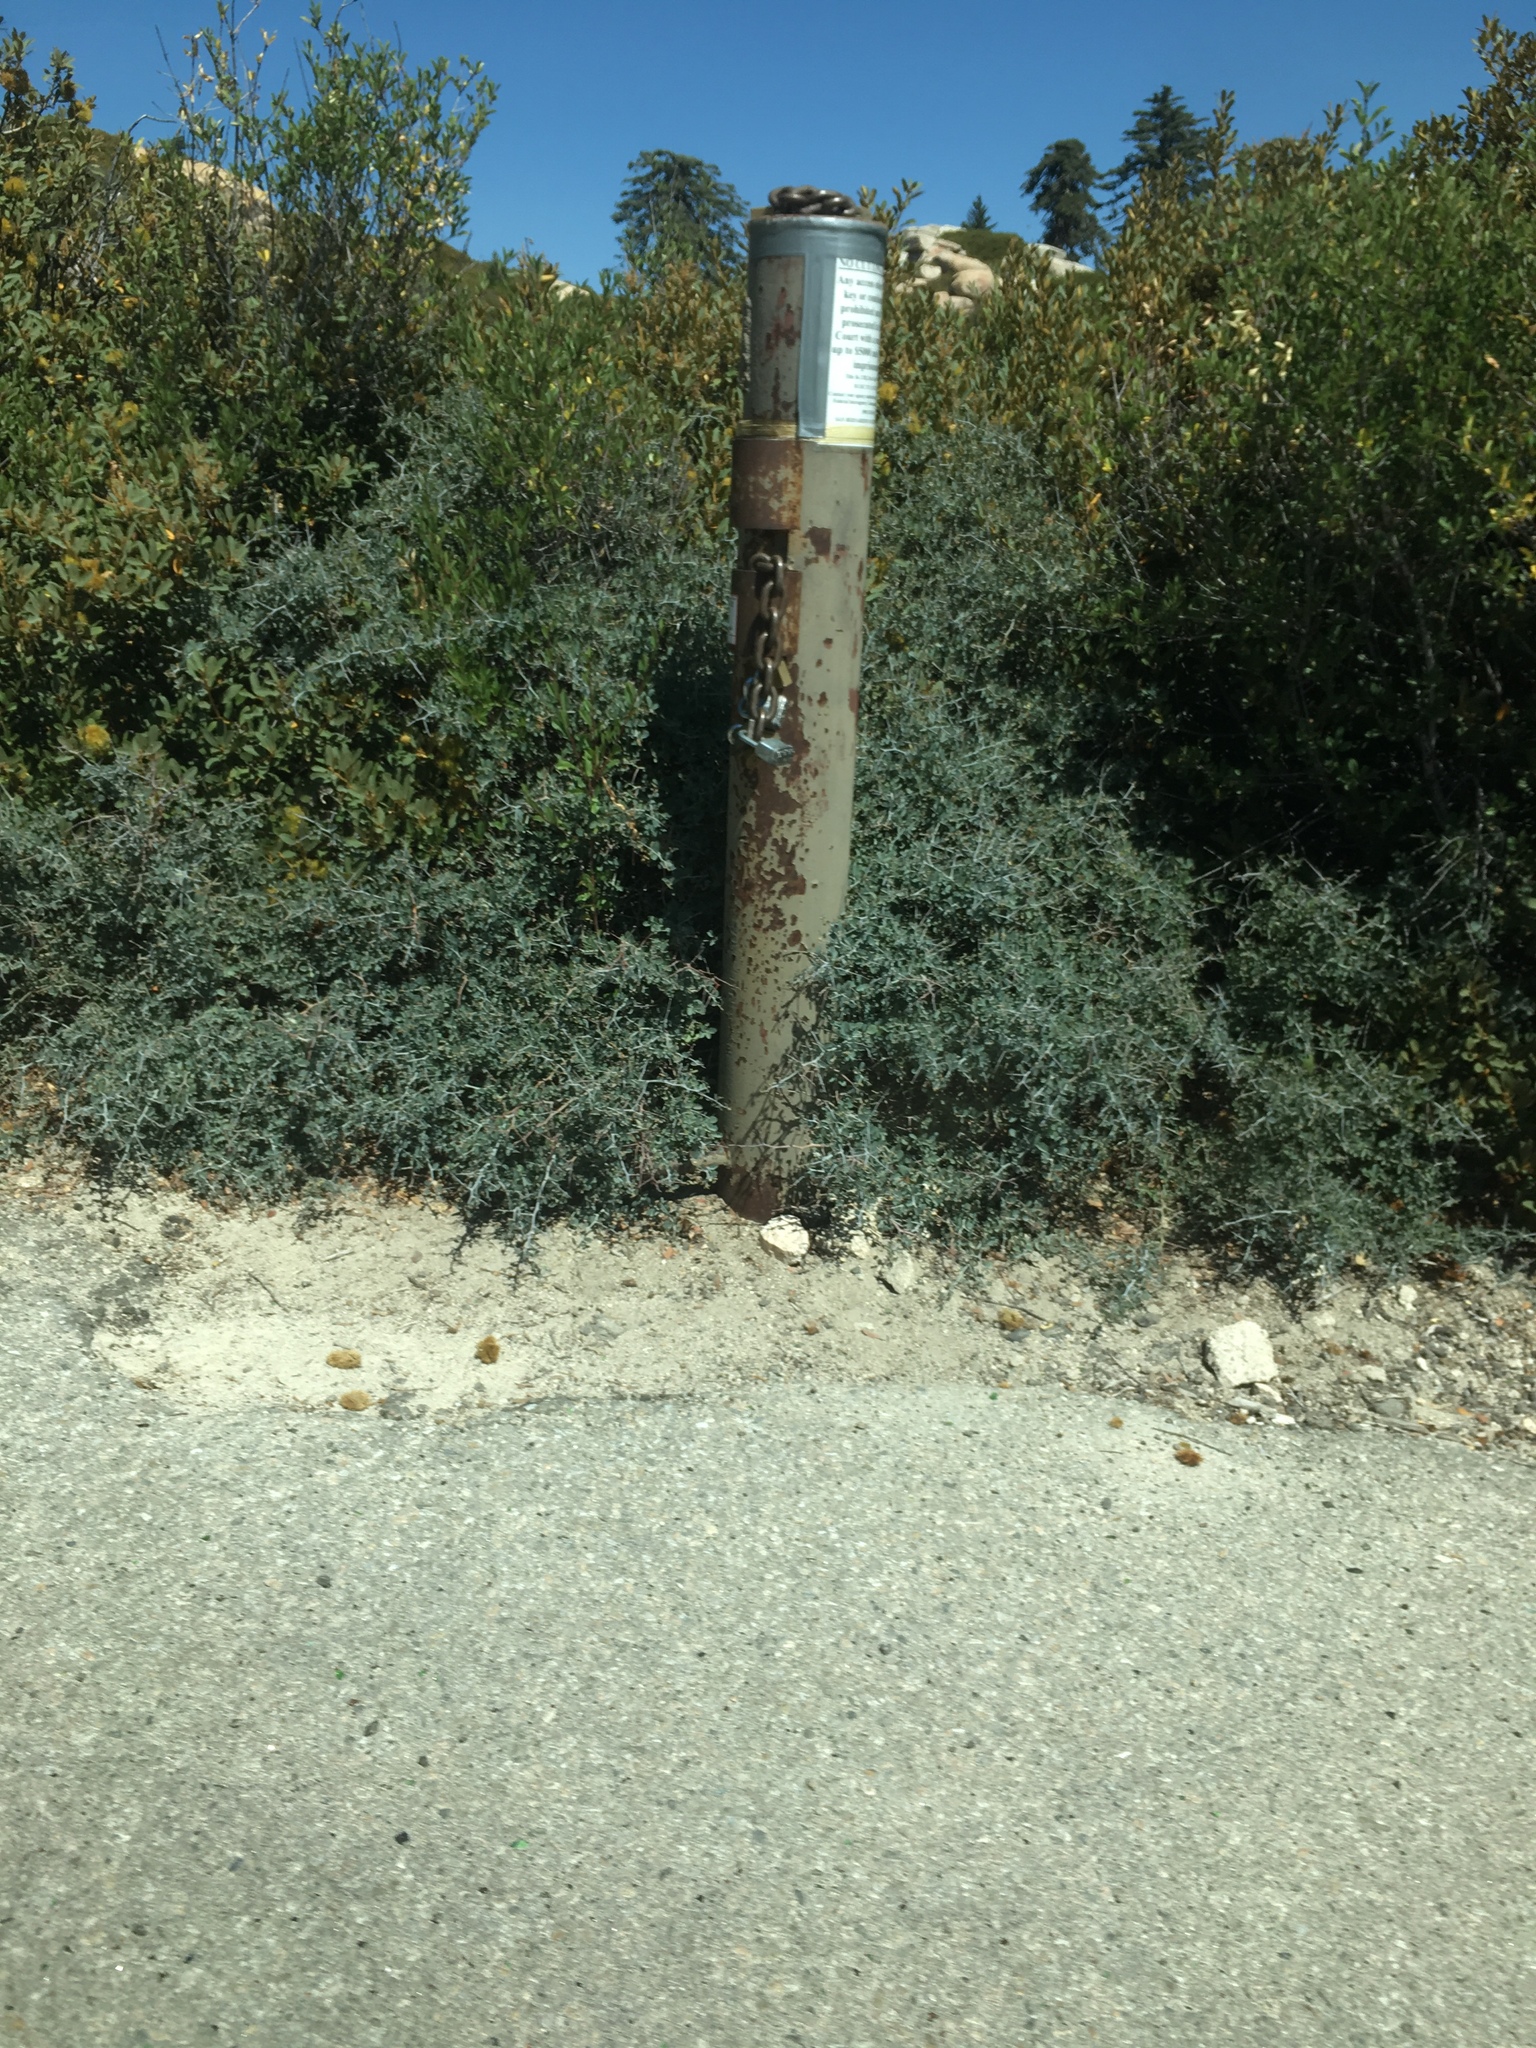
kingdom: Plantae
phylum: Tracheophyta
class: Magnoliopsida
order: Rosales
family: Rhamnaceae
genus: Ceanothus
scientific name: Ceanothus cordulatus
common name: Mountain whitethorn
